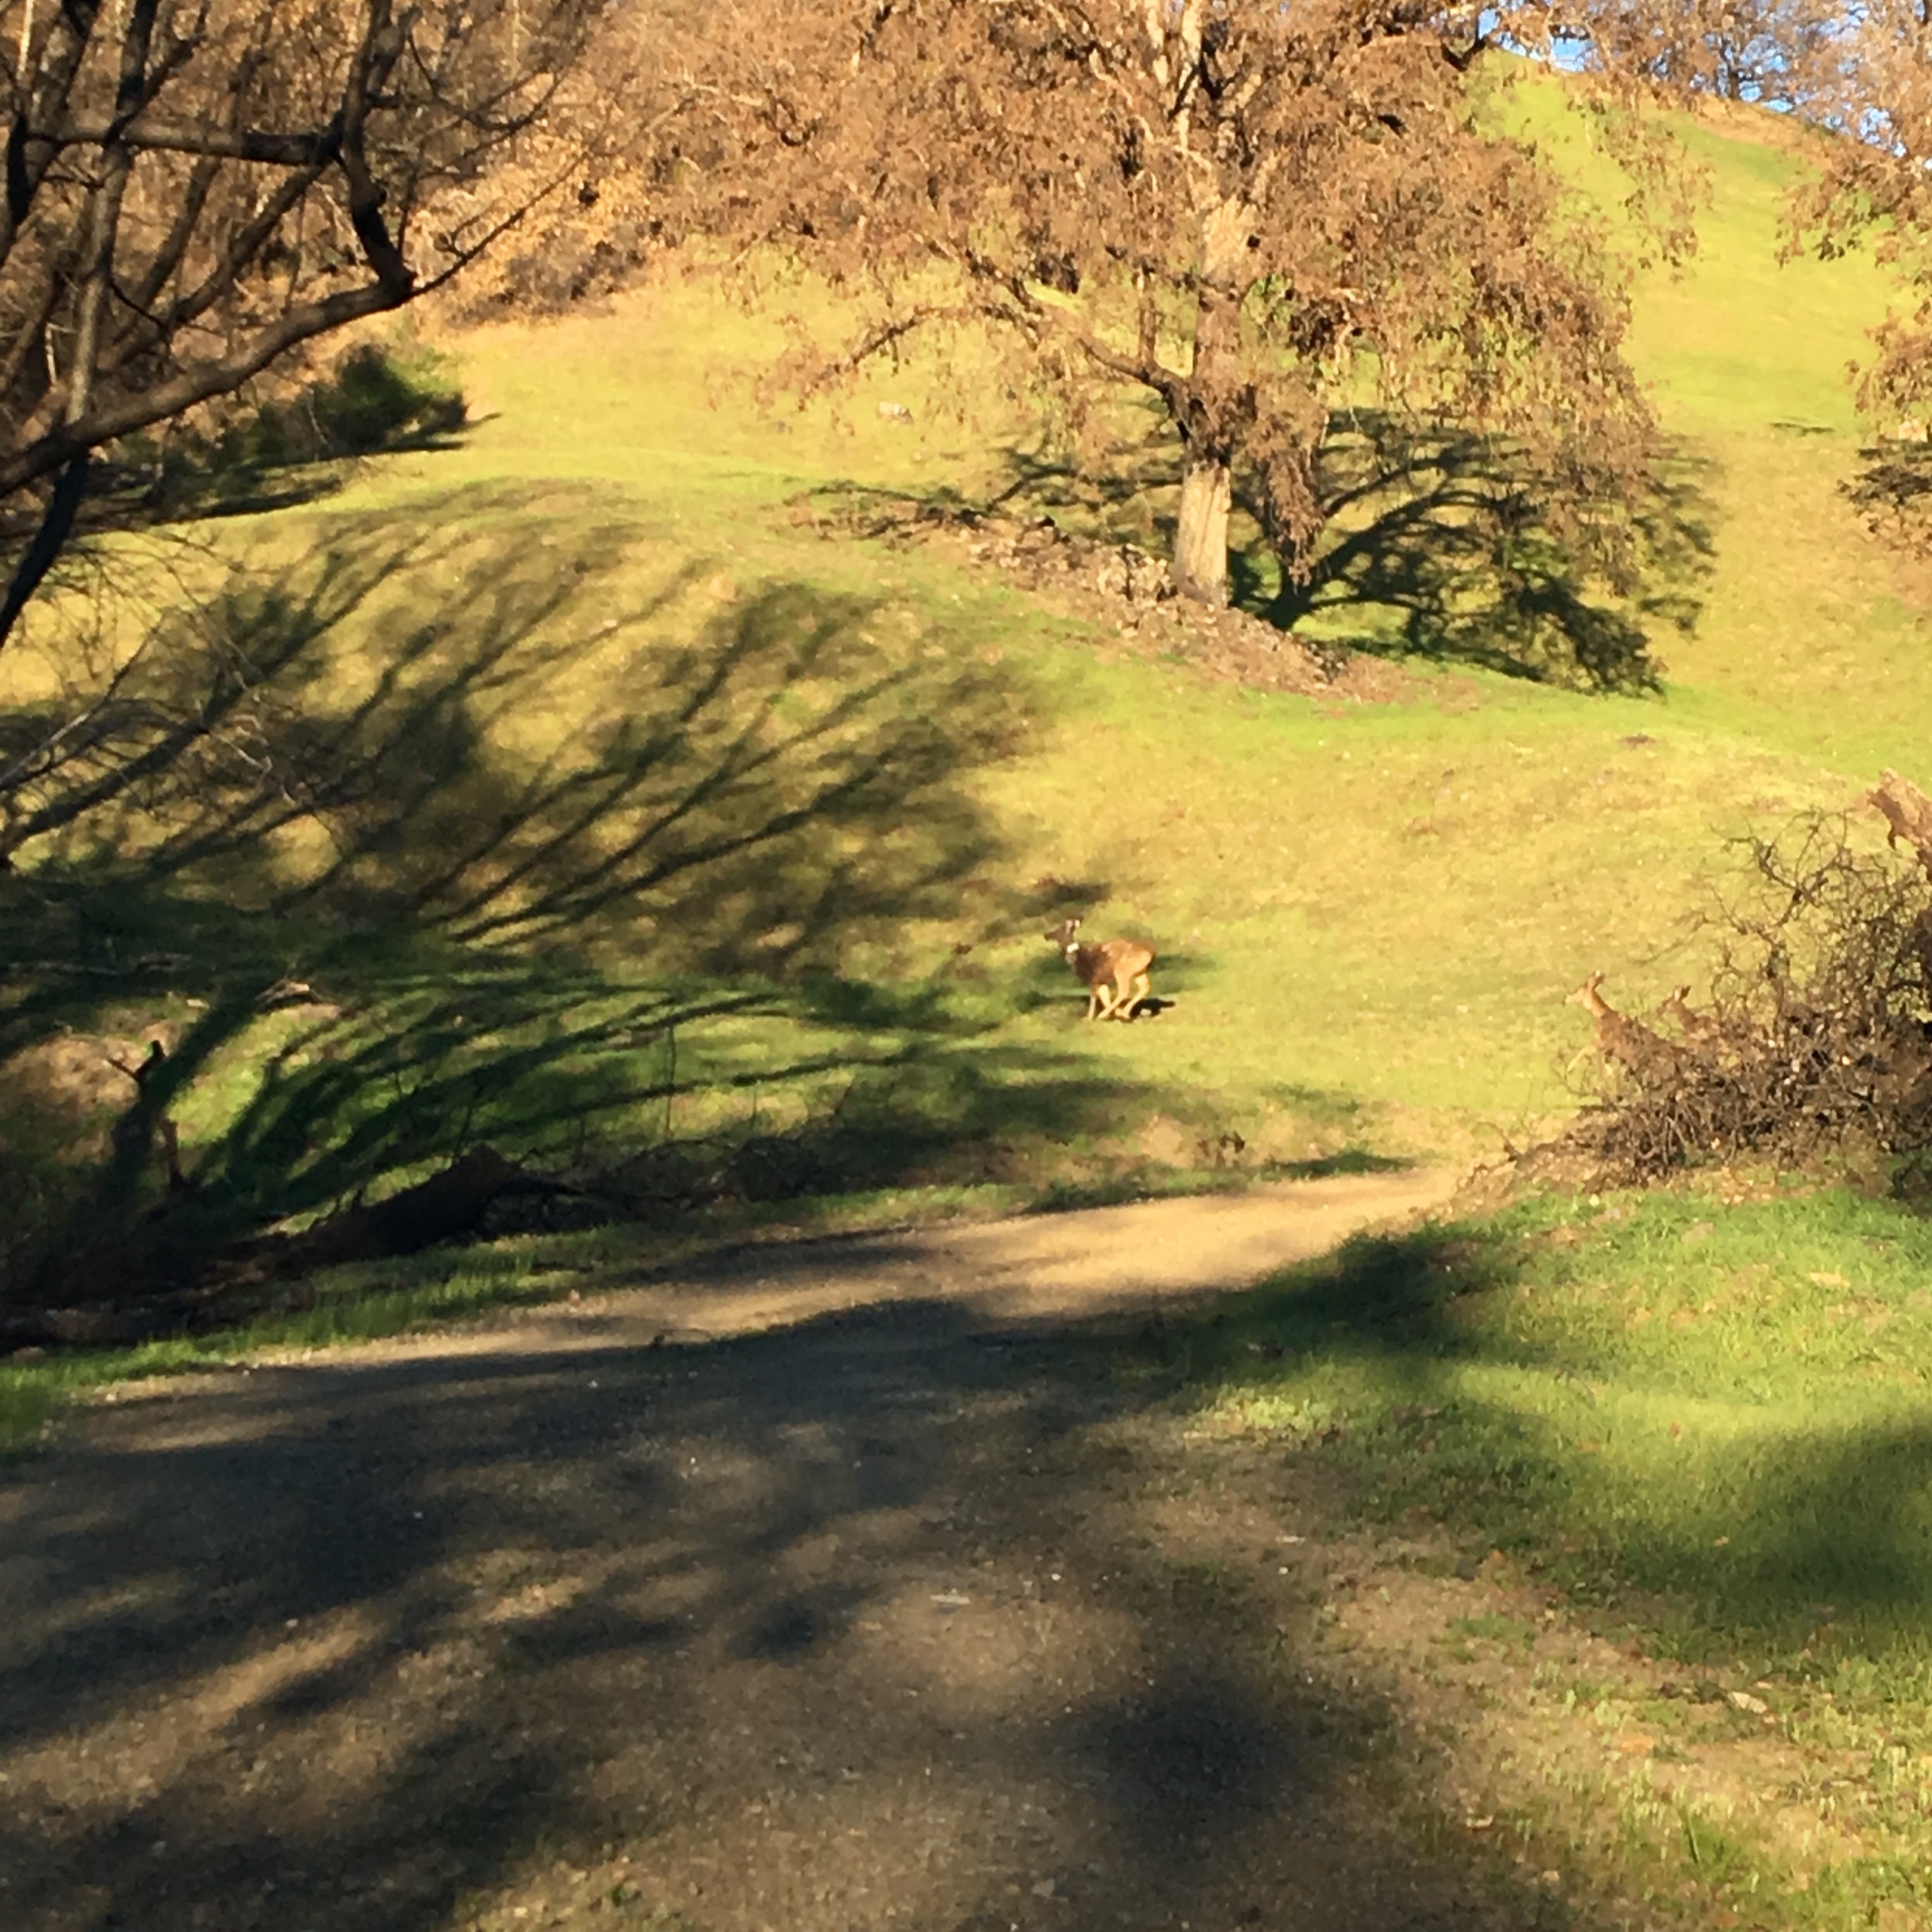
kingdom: Animalia
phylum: Chordata
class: Mammalia
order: Artiodactyla
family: Cervidae
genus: Odocoileus
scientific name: Odocoileus hemionus
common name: Mule deer
